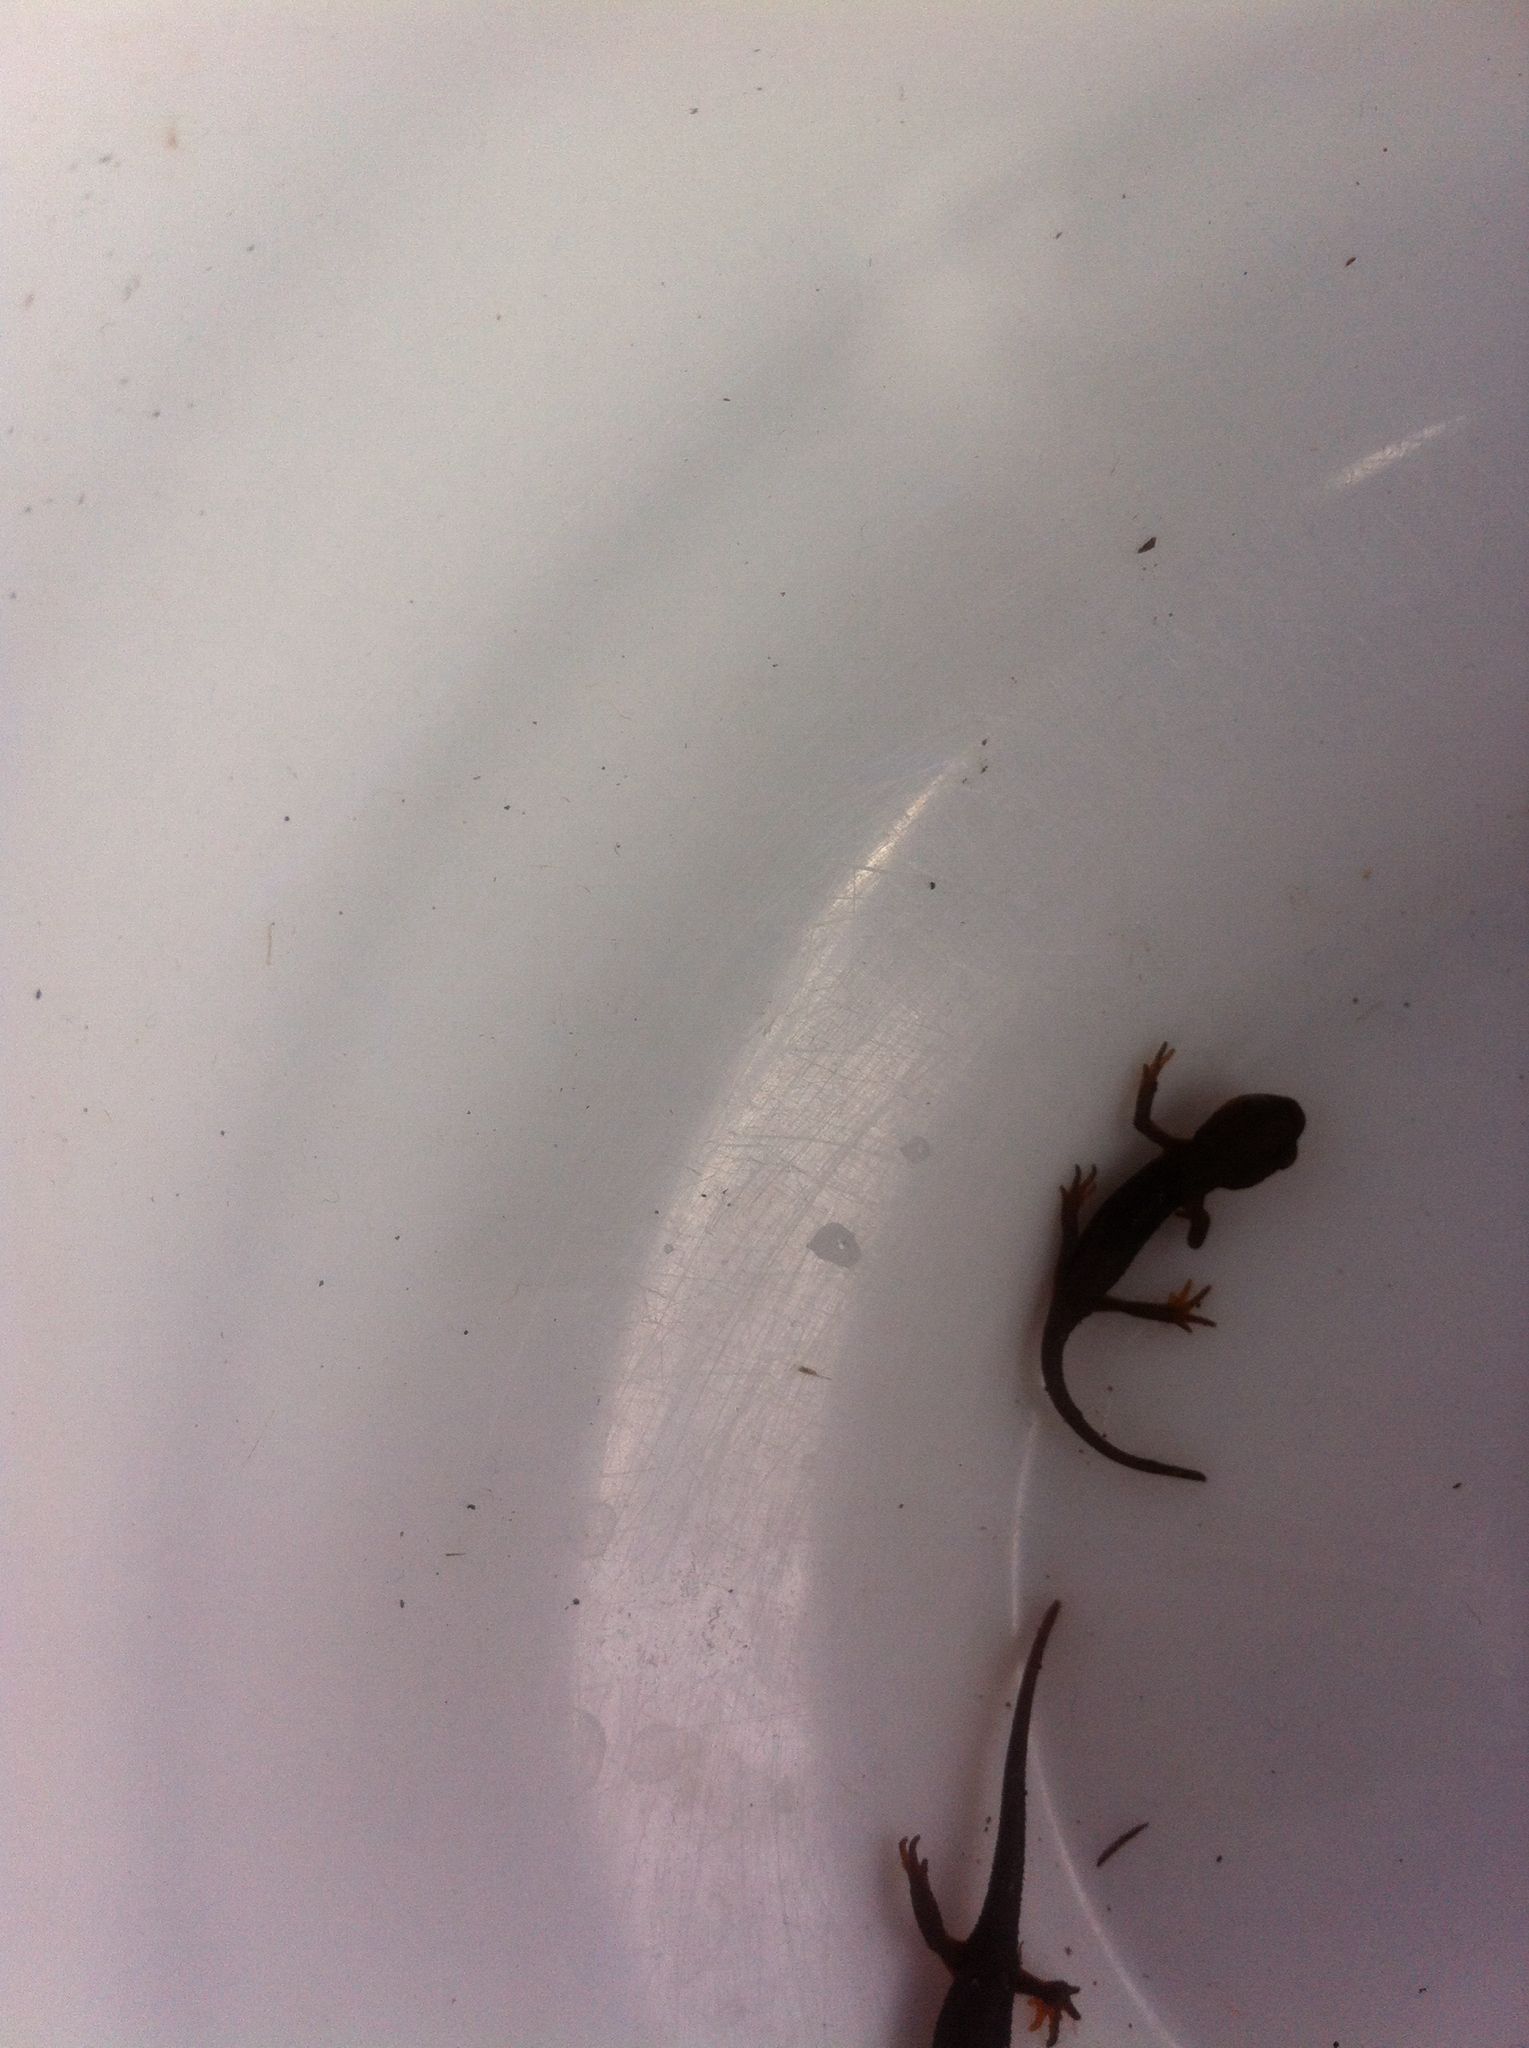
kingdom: Animalia
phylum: Chordata
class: Amphibia
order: Caudata
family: Salamandridae
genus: Taricha
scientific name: Taricha
